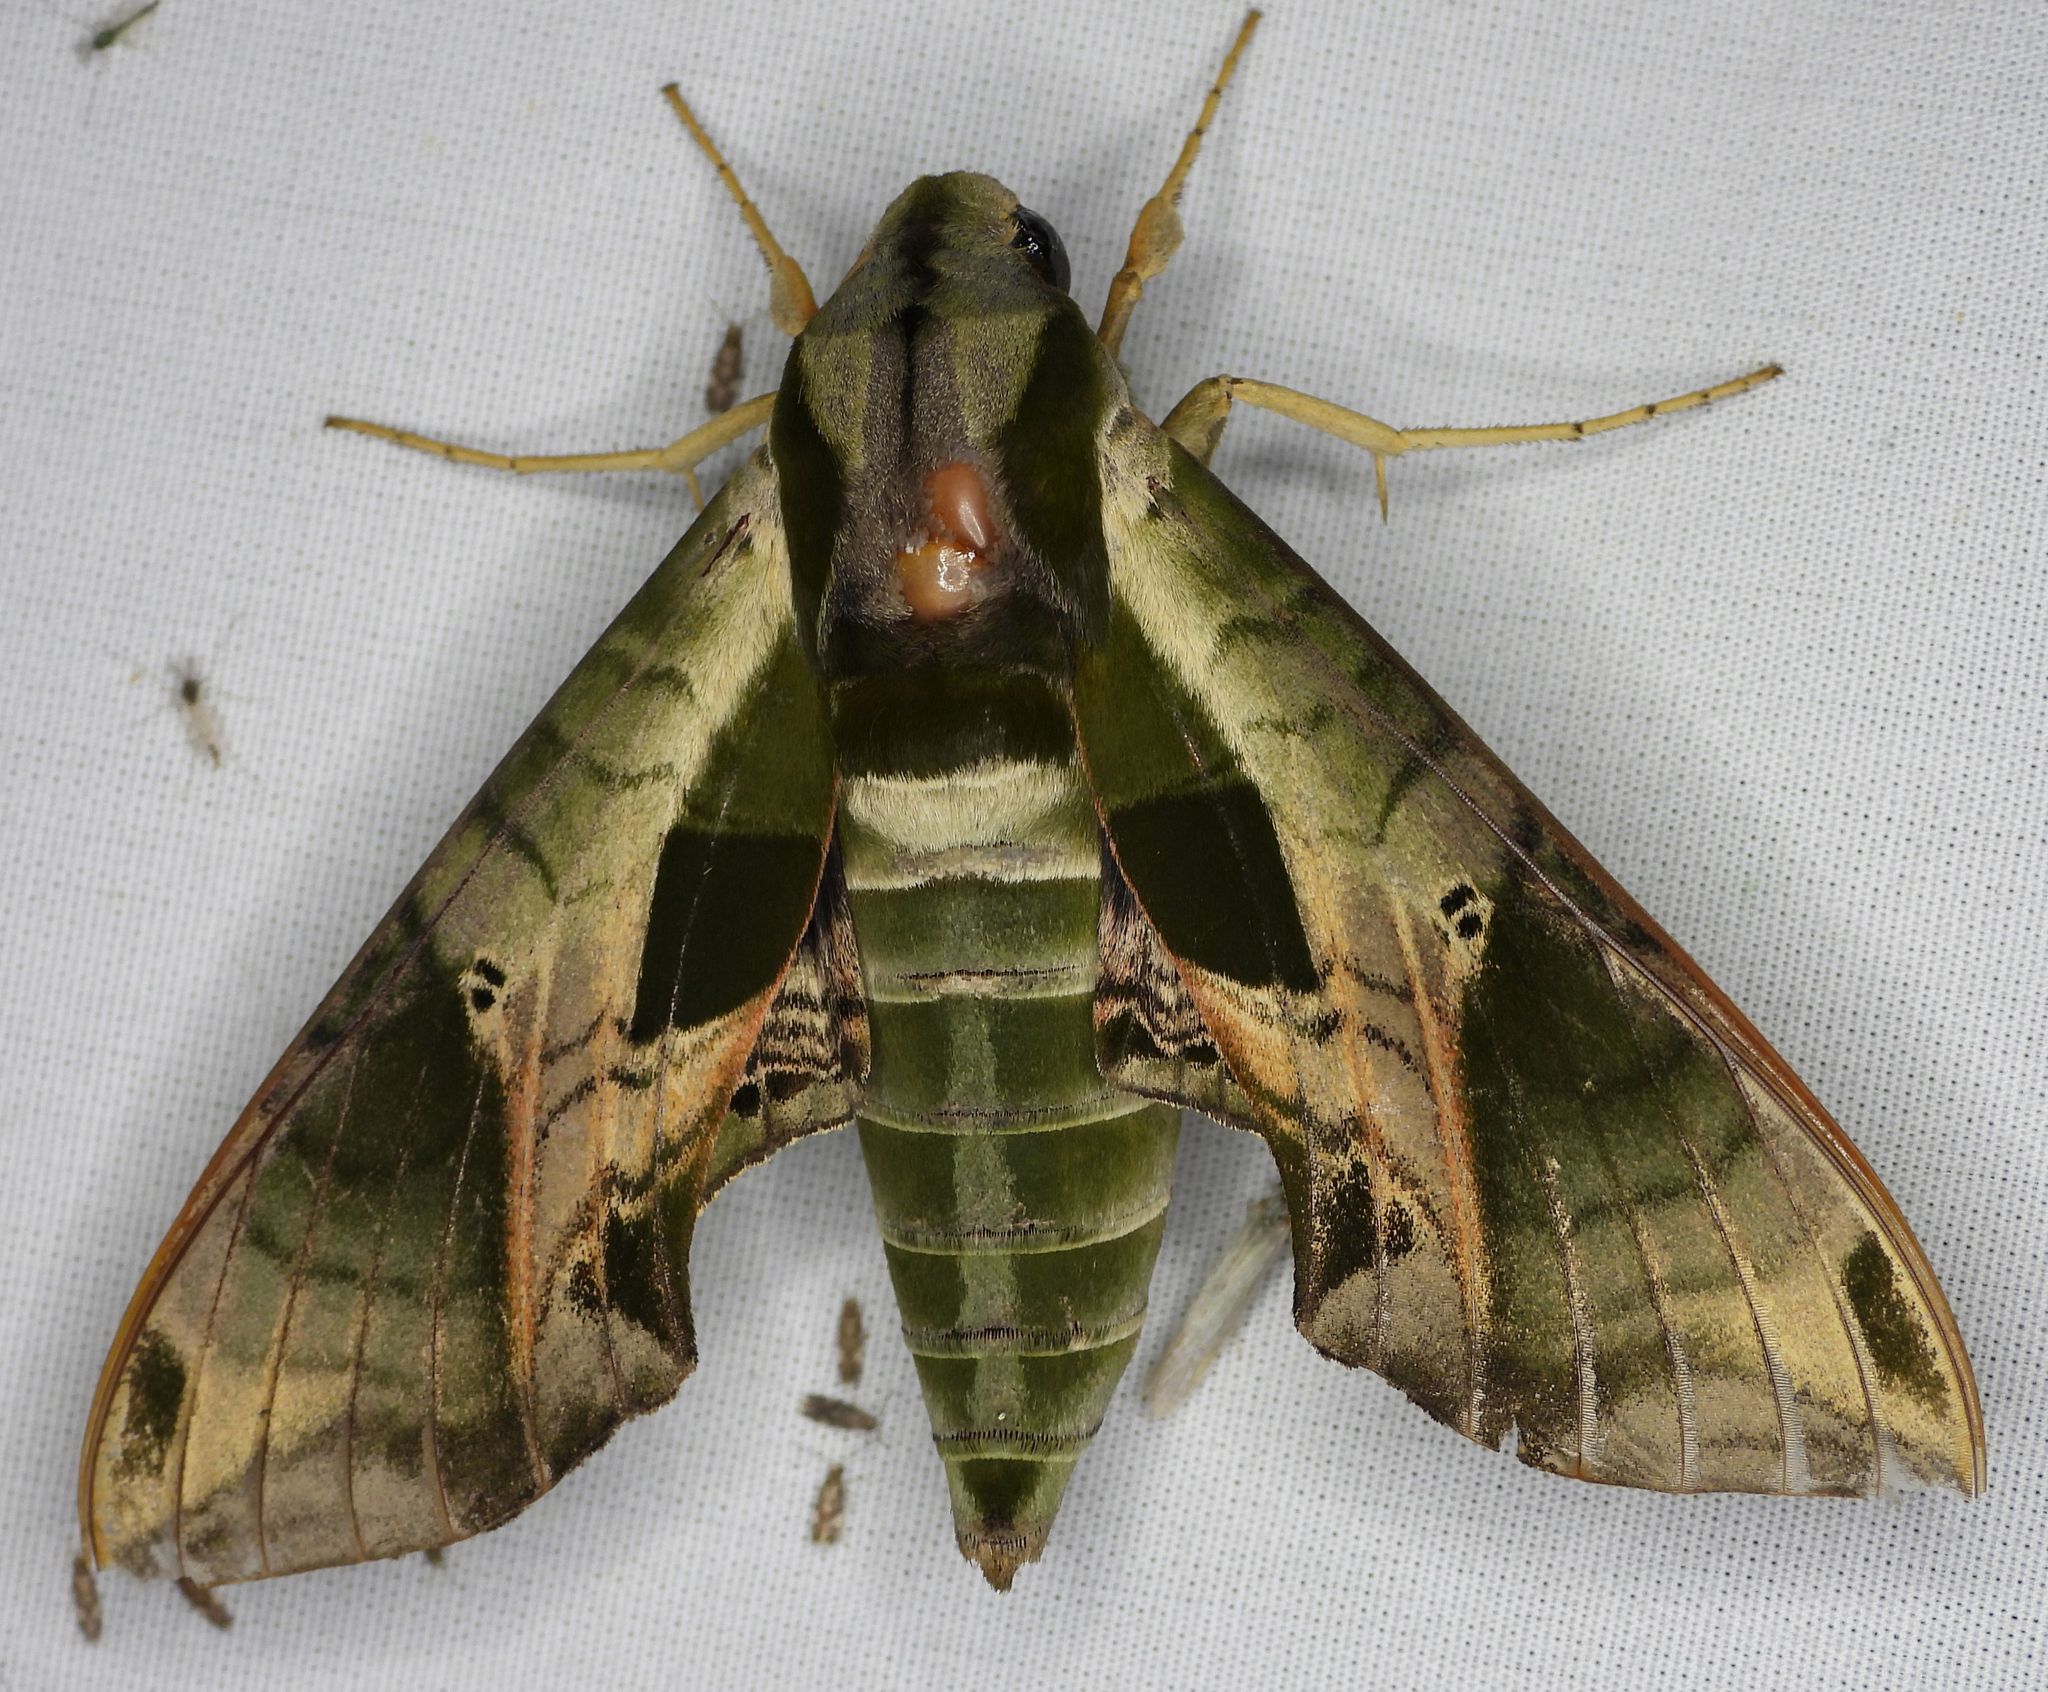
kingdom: Animalia
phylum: Arthropoda
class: Insecta
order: Lepidoptera
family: Sphingidae
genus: Eumorpha
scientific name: Eumorpha pandorus
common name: Pandora sphinx
